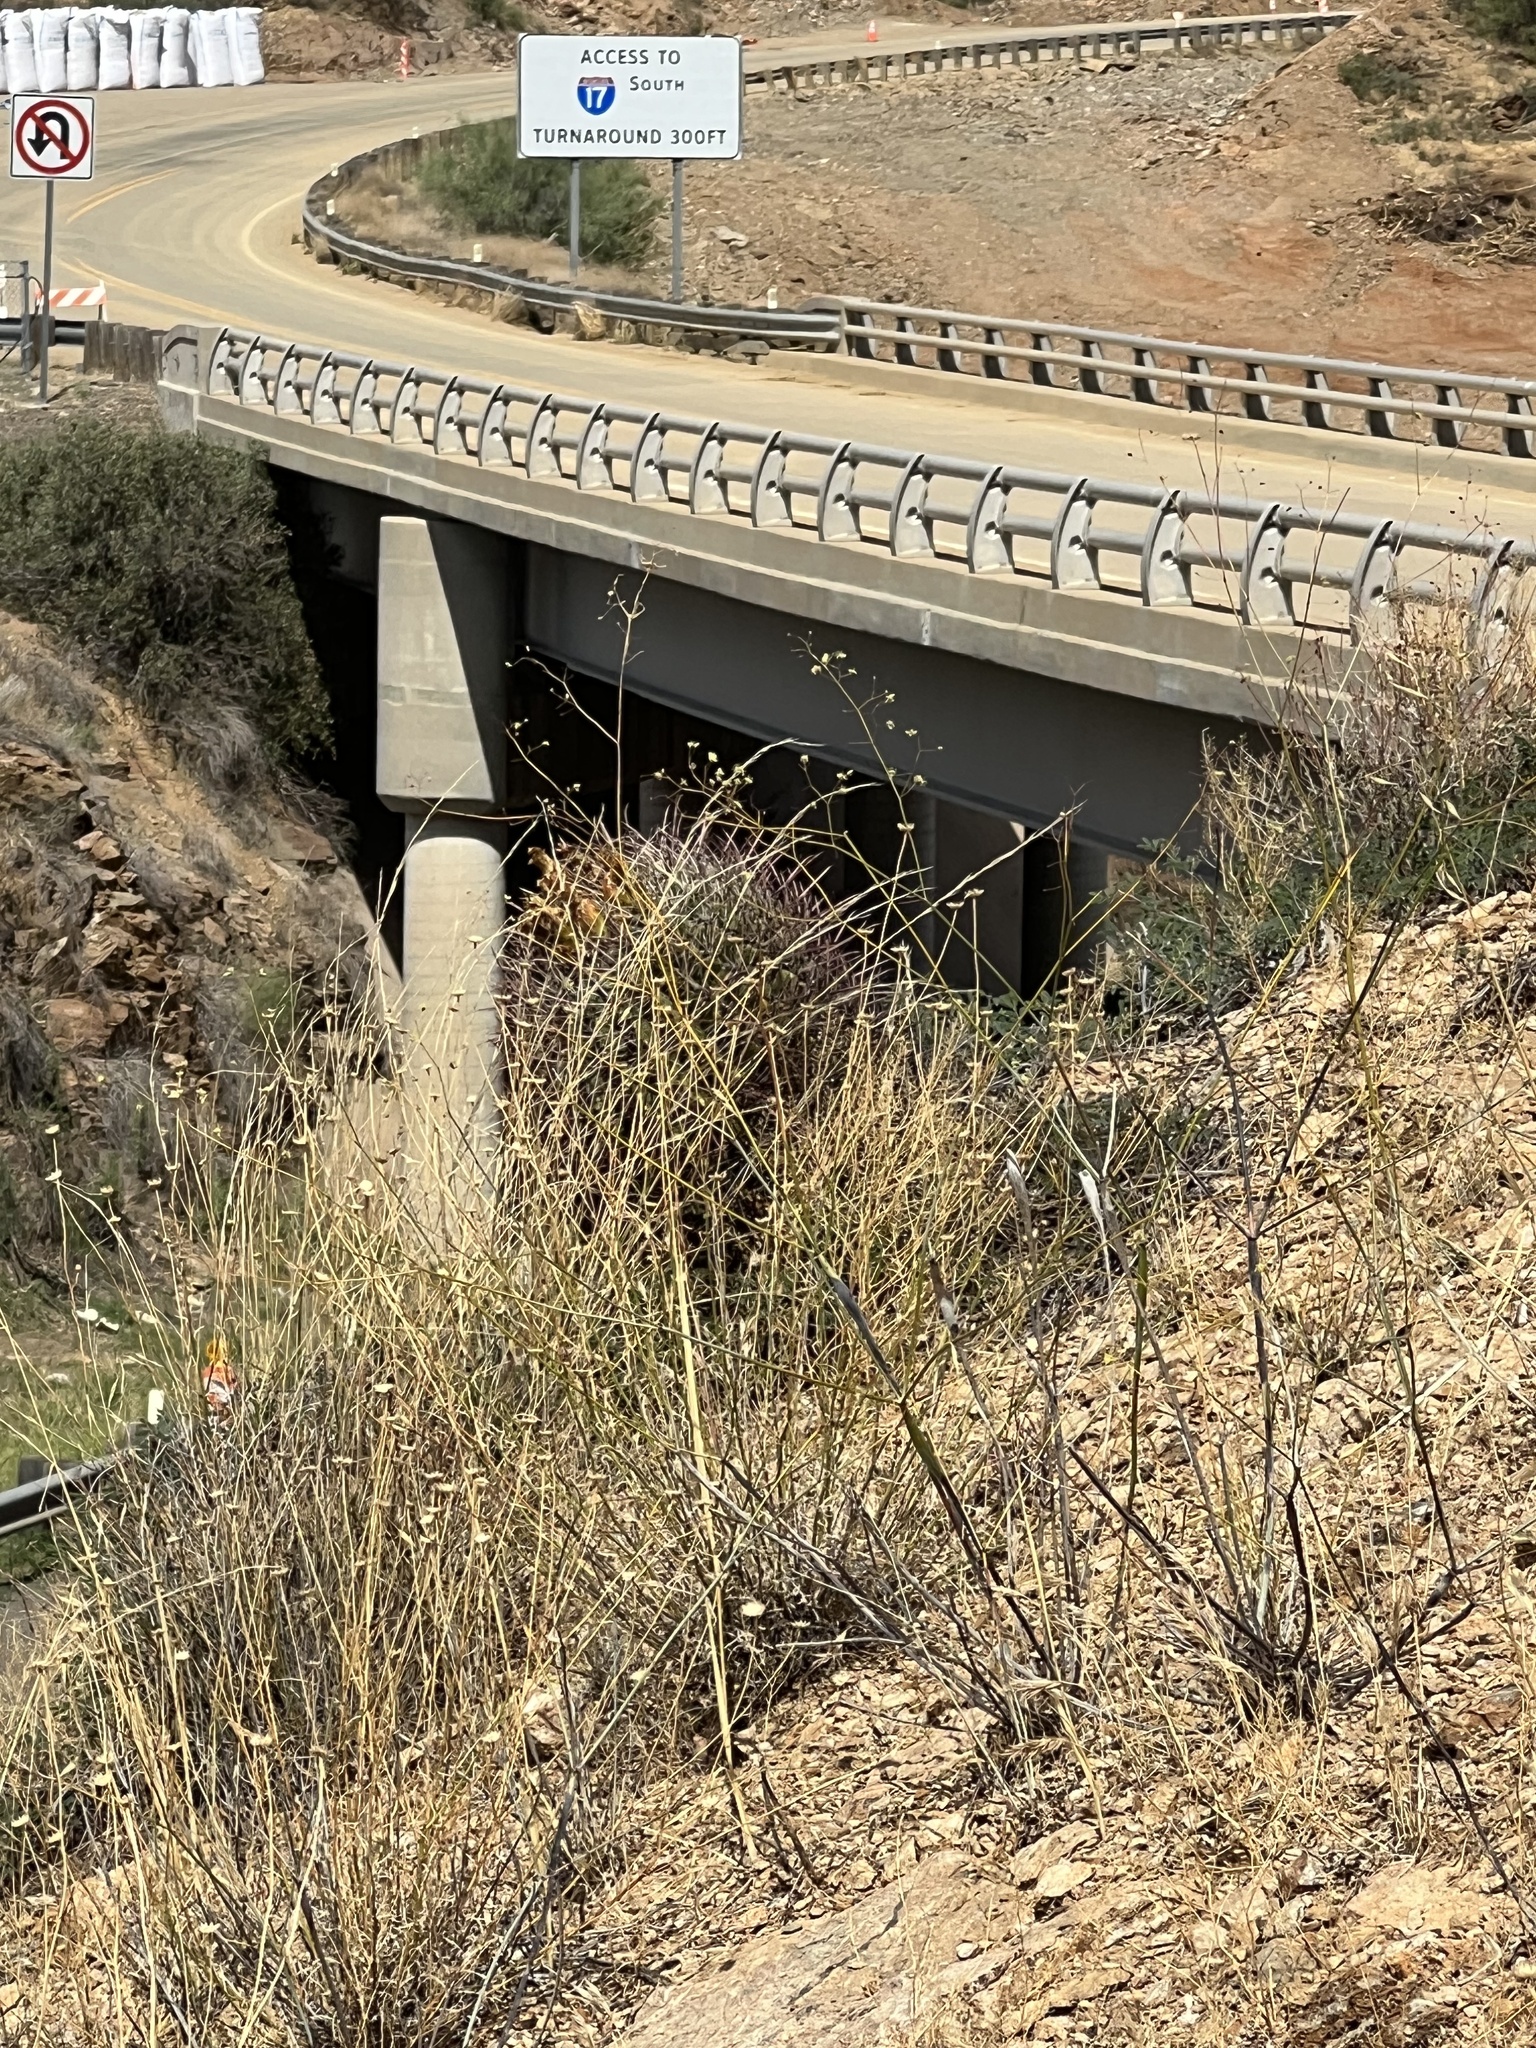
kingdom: Plantae
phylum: Tracheophyta
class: Magnoliopsida
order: Caryophyllales
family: Cactaceae
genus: Ferocactus
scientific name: Ferocactus cylindraceus
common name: California barrel cactus
